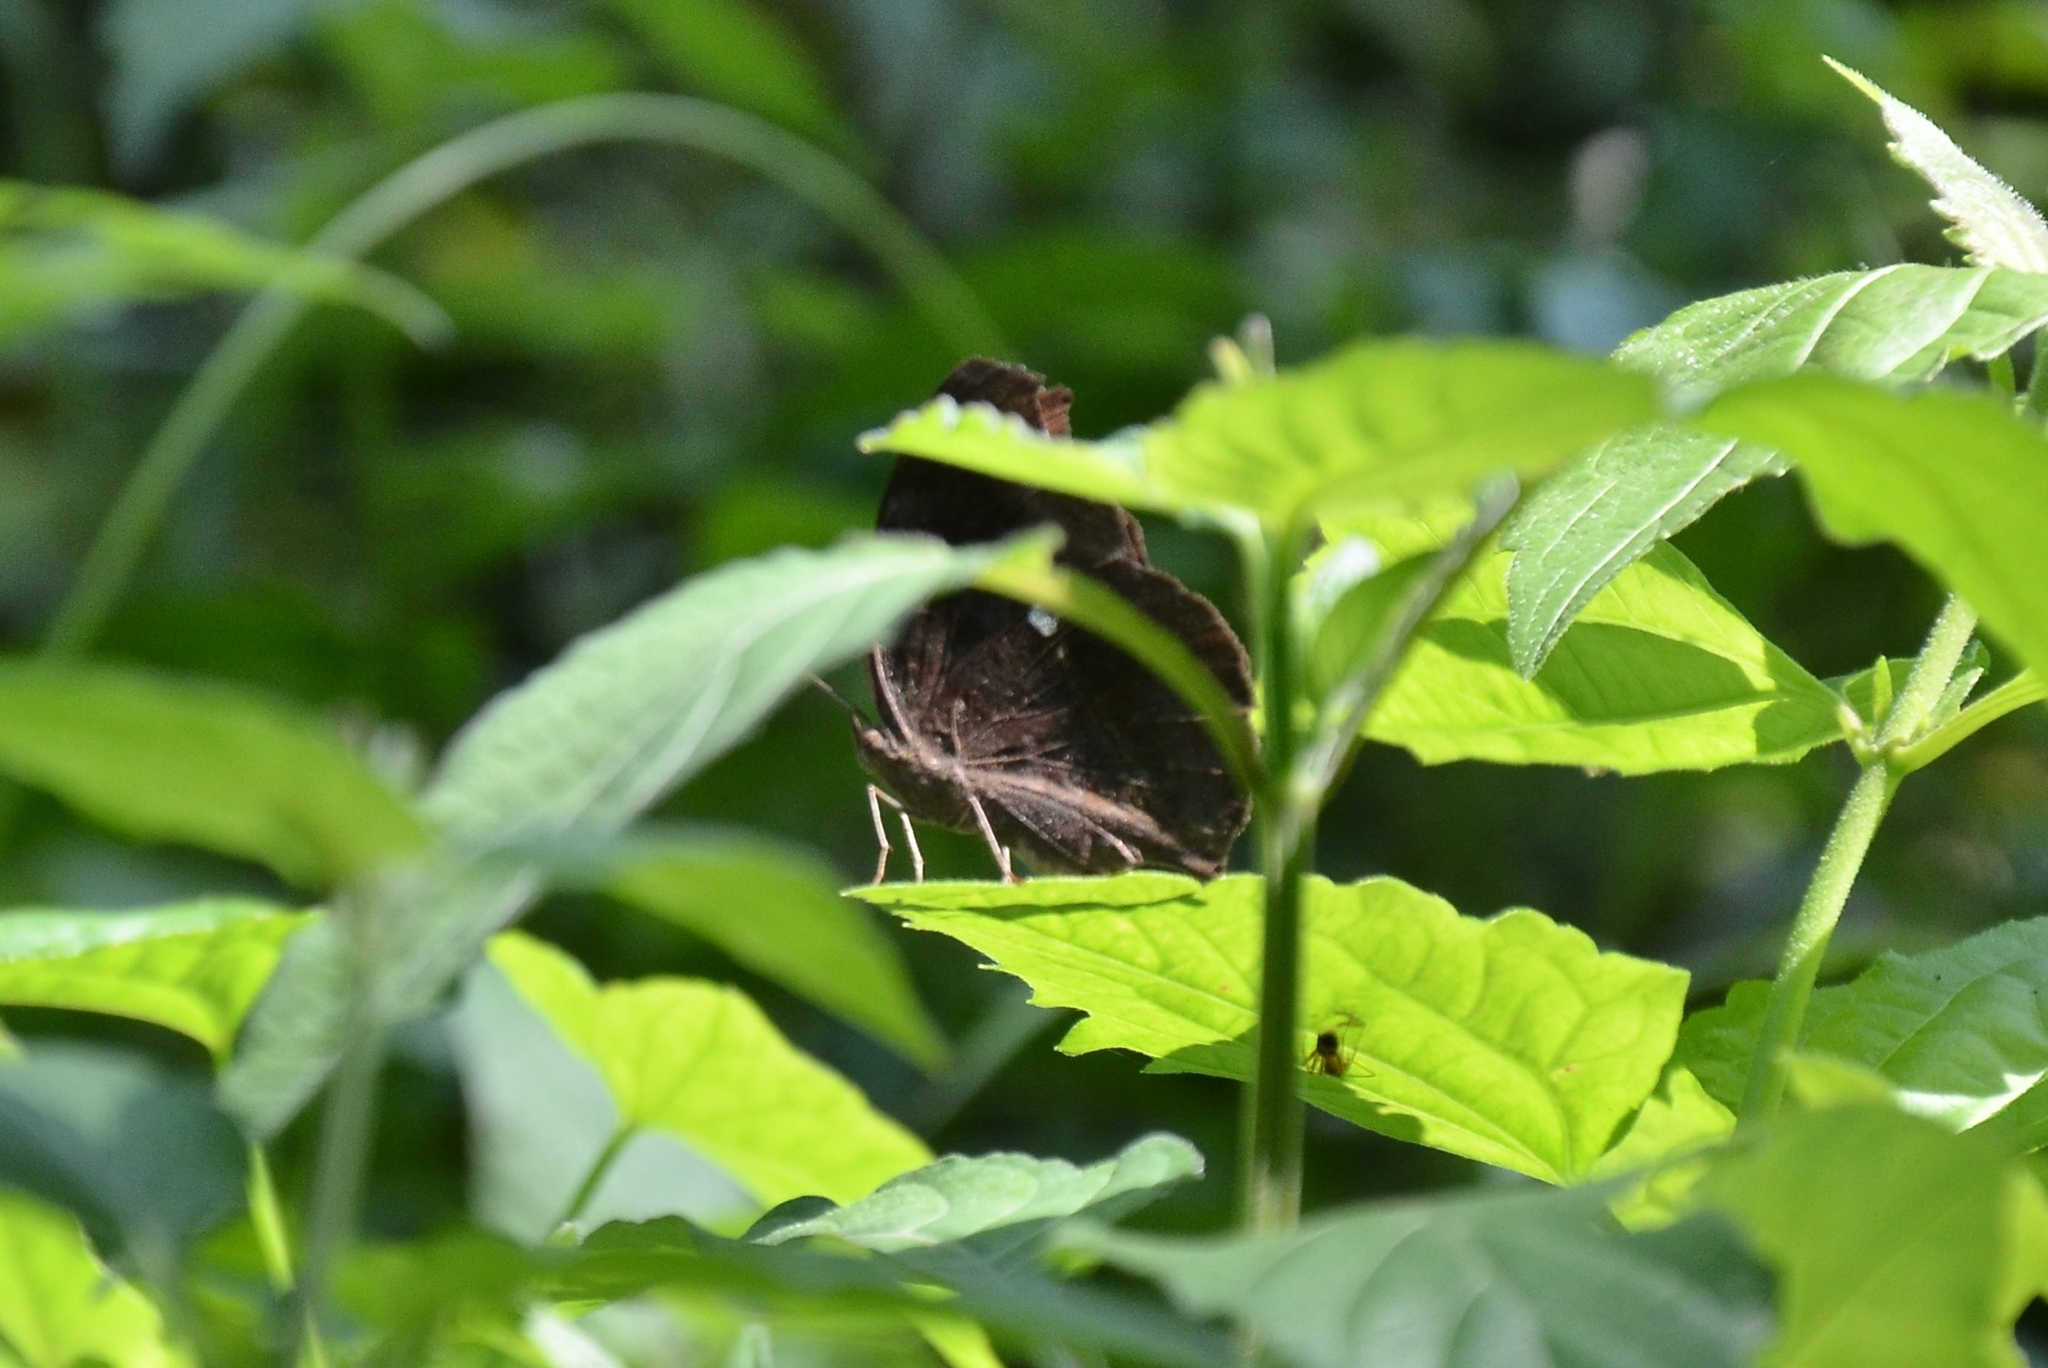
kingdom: Animalia
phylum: Arthropoda
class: Insecta
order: Lepidoptera
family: Nymphalidae
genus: Junonia
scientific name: Junonia iphita
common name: Chocolate pansy
